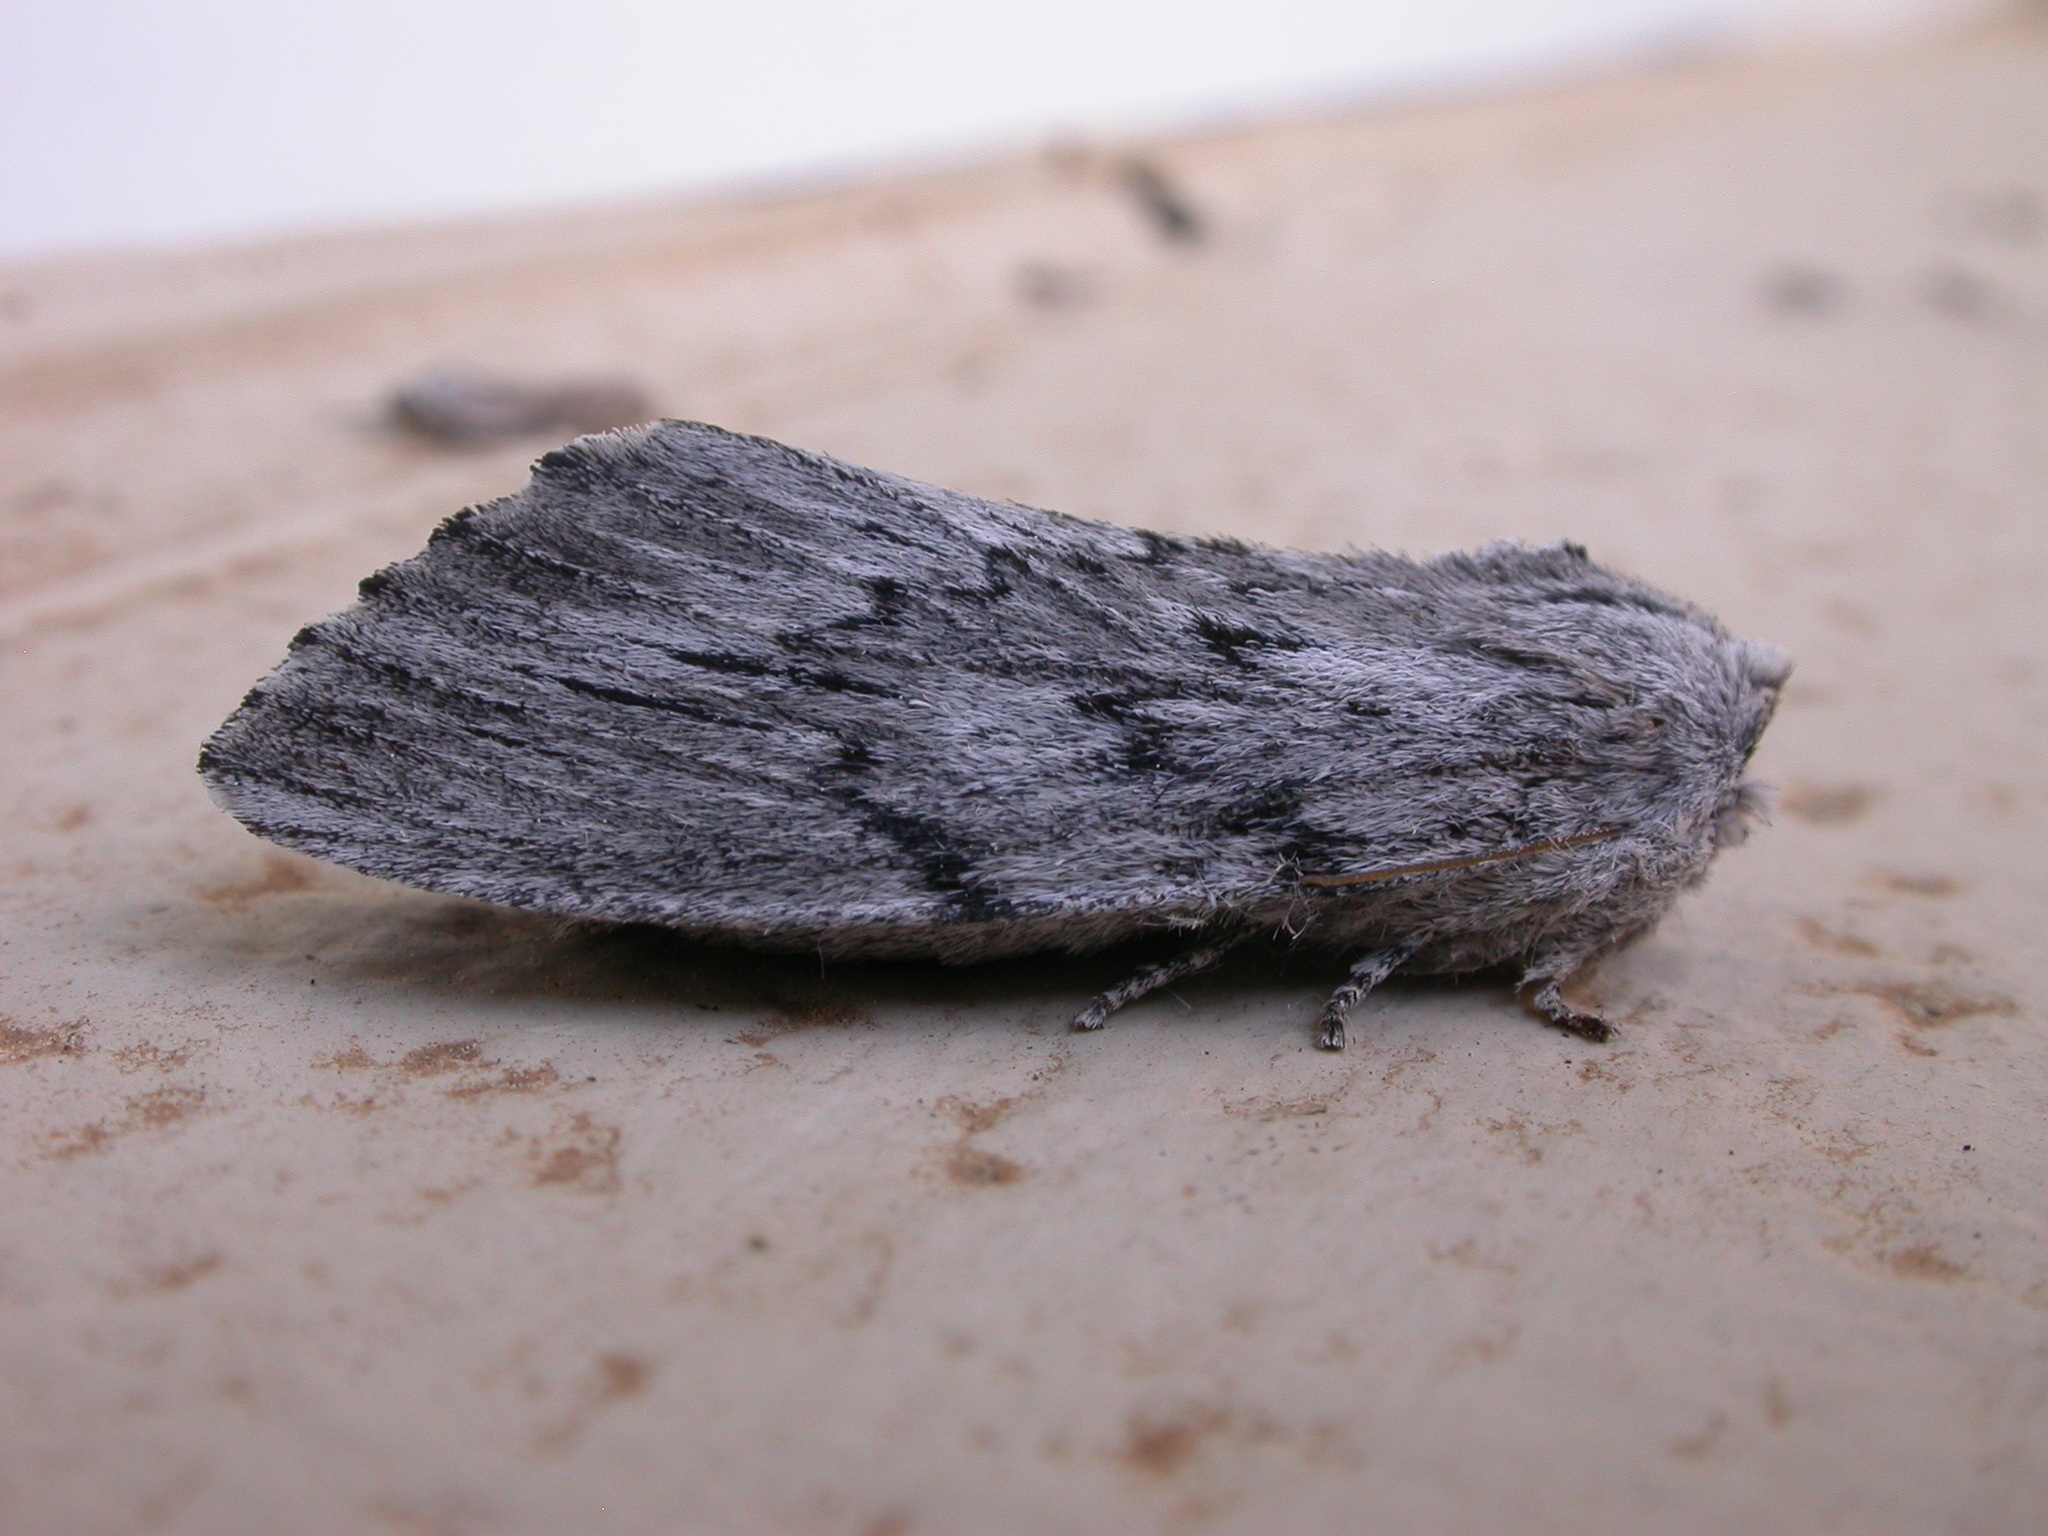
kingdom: Animalia
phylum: Arthropoda
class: Insecta
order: Lepidoptera
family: Notodontidae
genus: Destolmia
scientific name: Destolmia lineata
